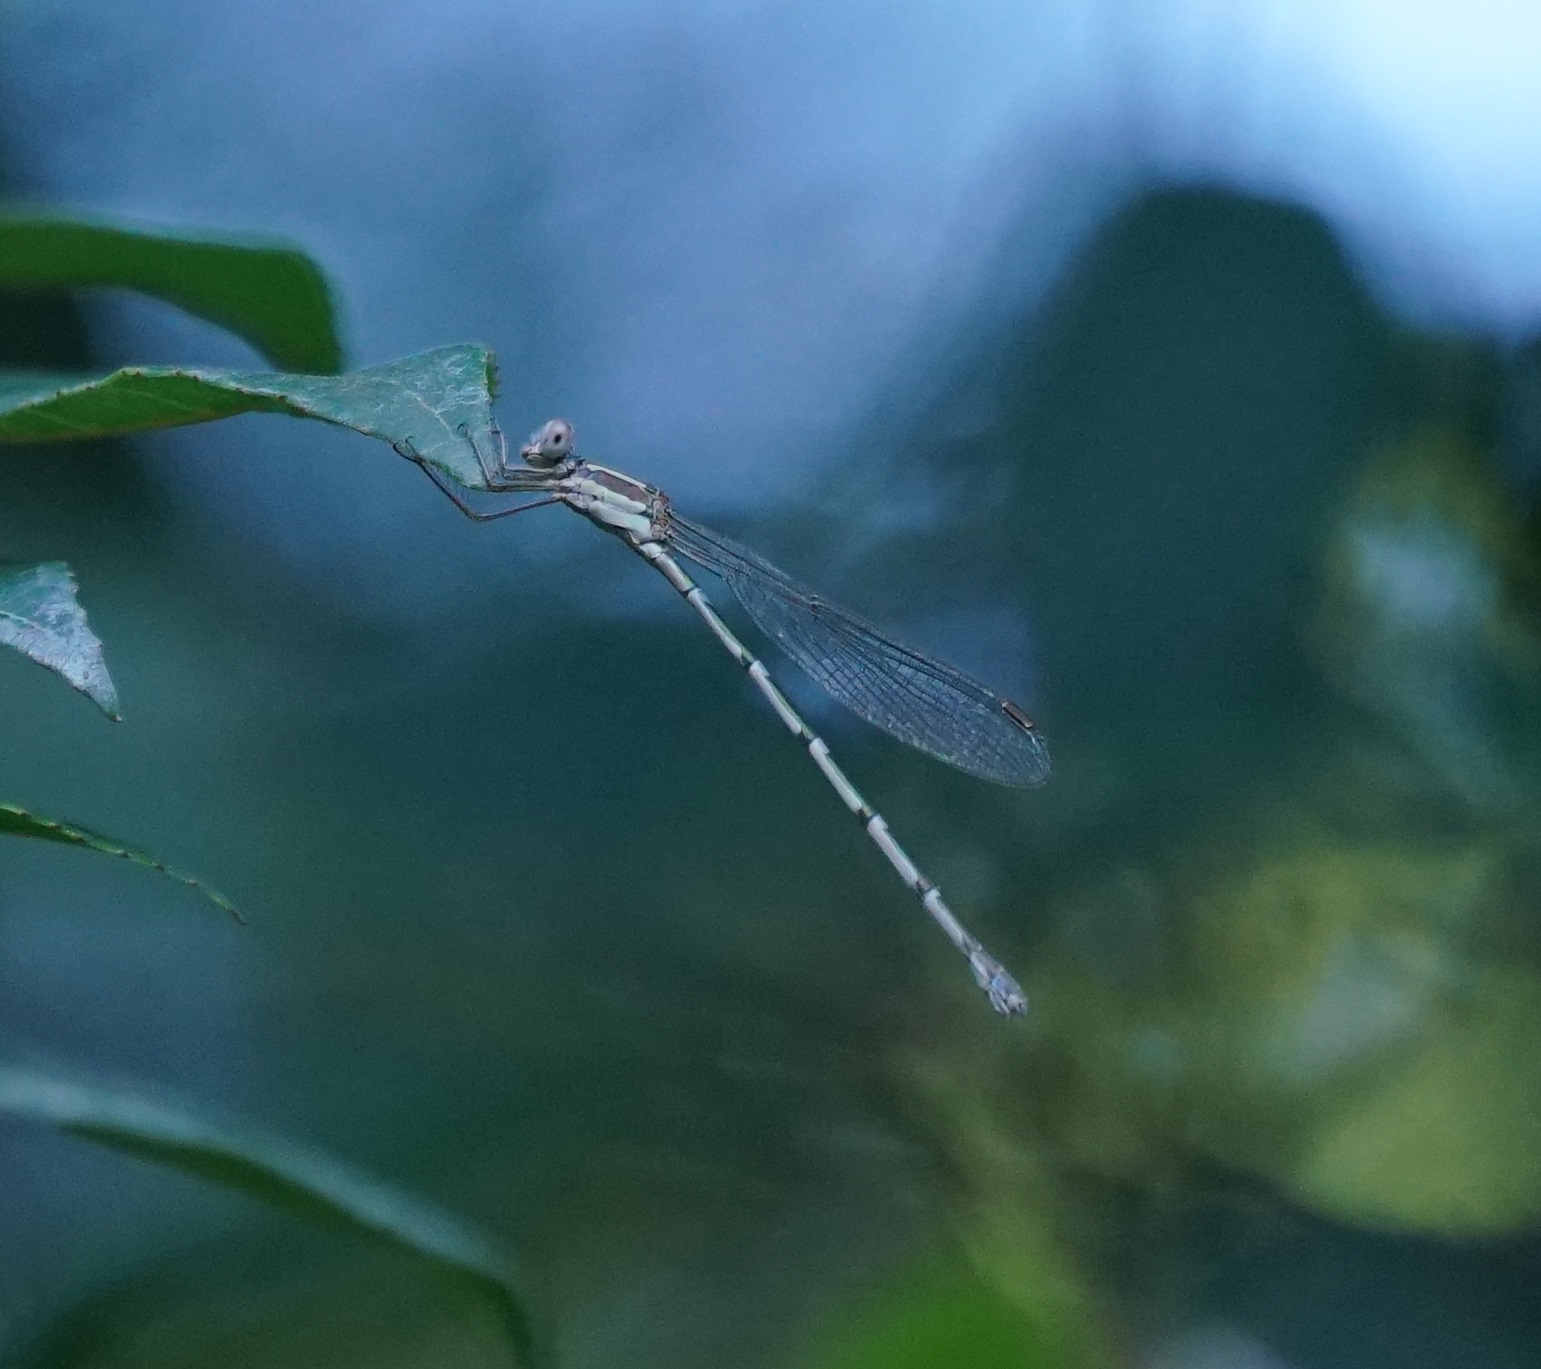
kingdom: Animalia
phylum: Arthropoda
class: Insecta
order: Odonata
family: Lestidae
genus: Austrolestes
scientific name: Austrolestes leda
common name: Wandering ringtail
